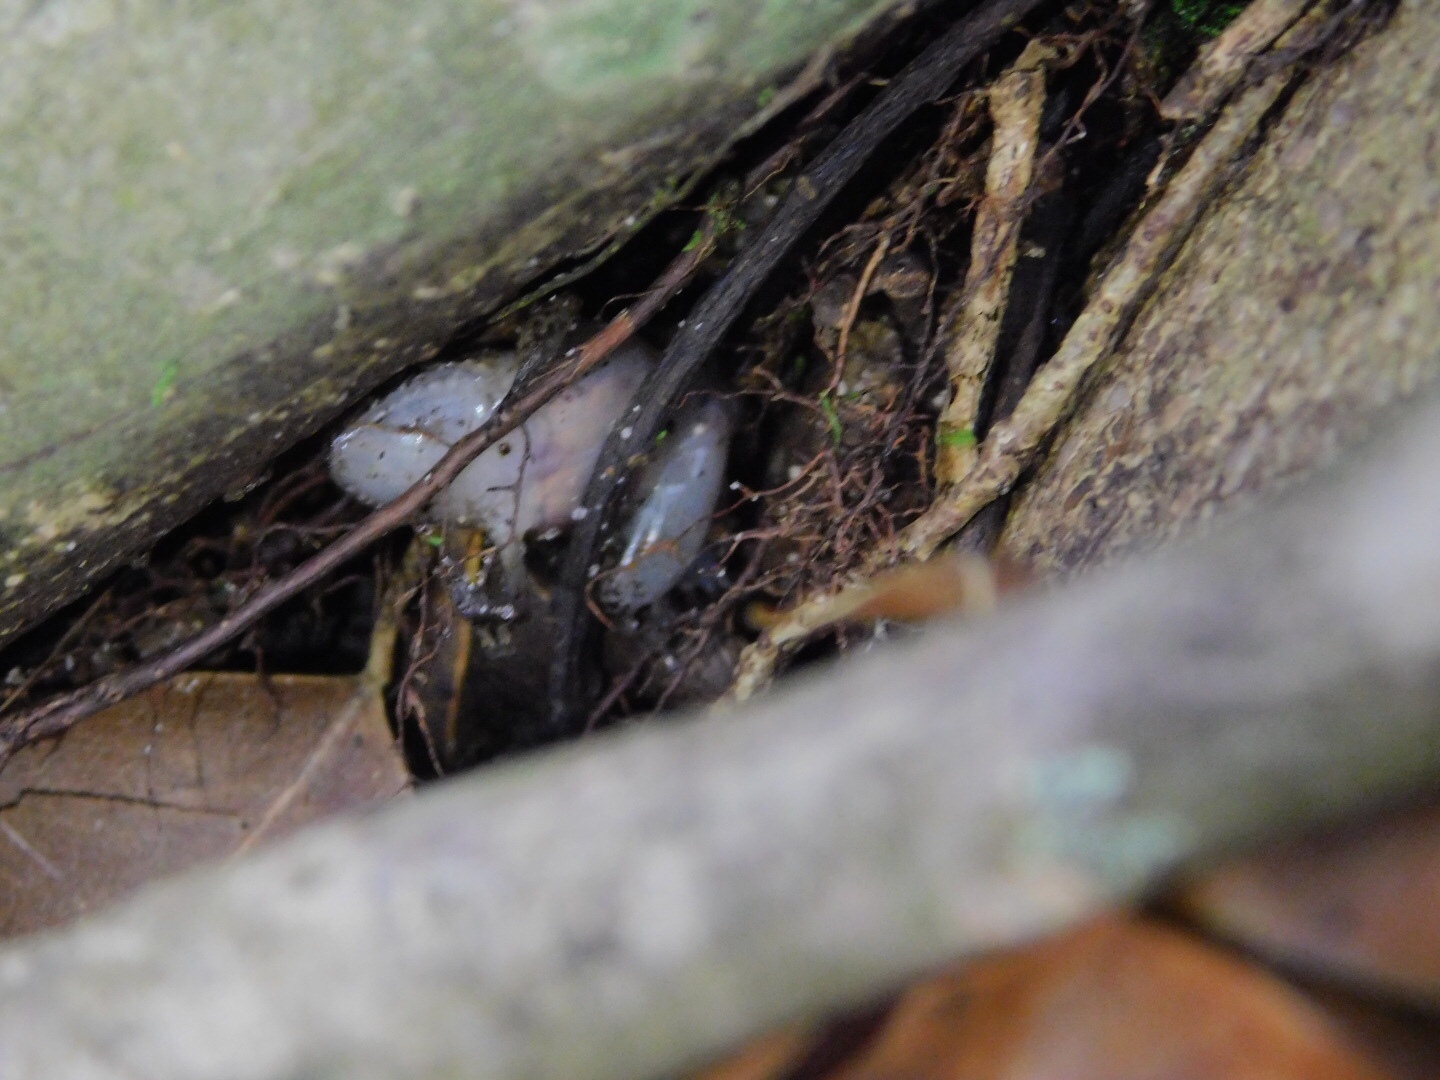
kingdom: Animalia
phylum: Chordata
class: Amphibia
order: Anura
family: Eleutherodactylidae
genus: Eleutherodactylus
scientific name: Eleutherodactylus planirostris
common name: Greenhouse frog
